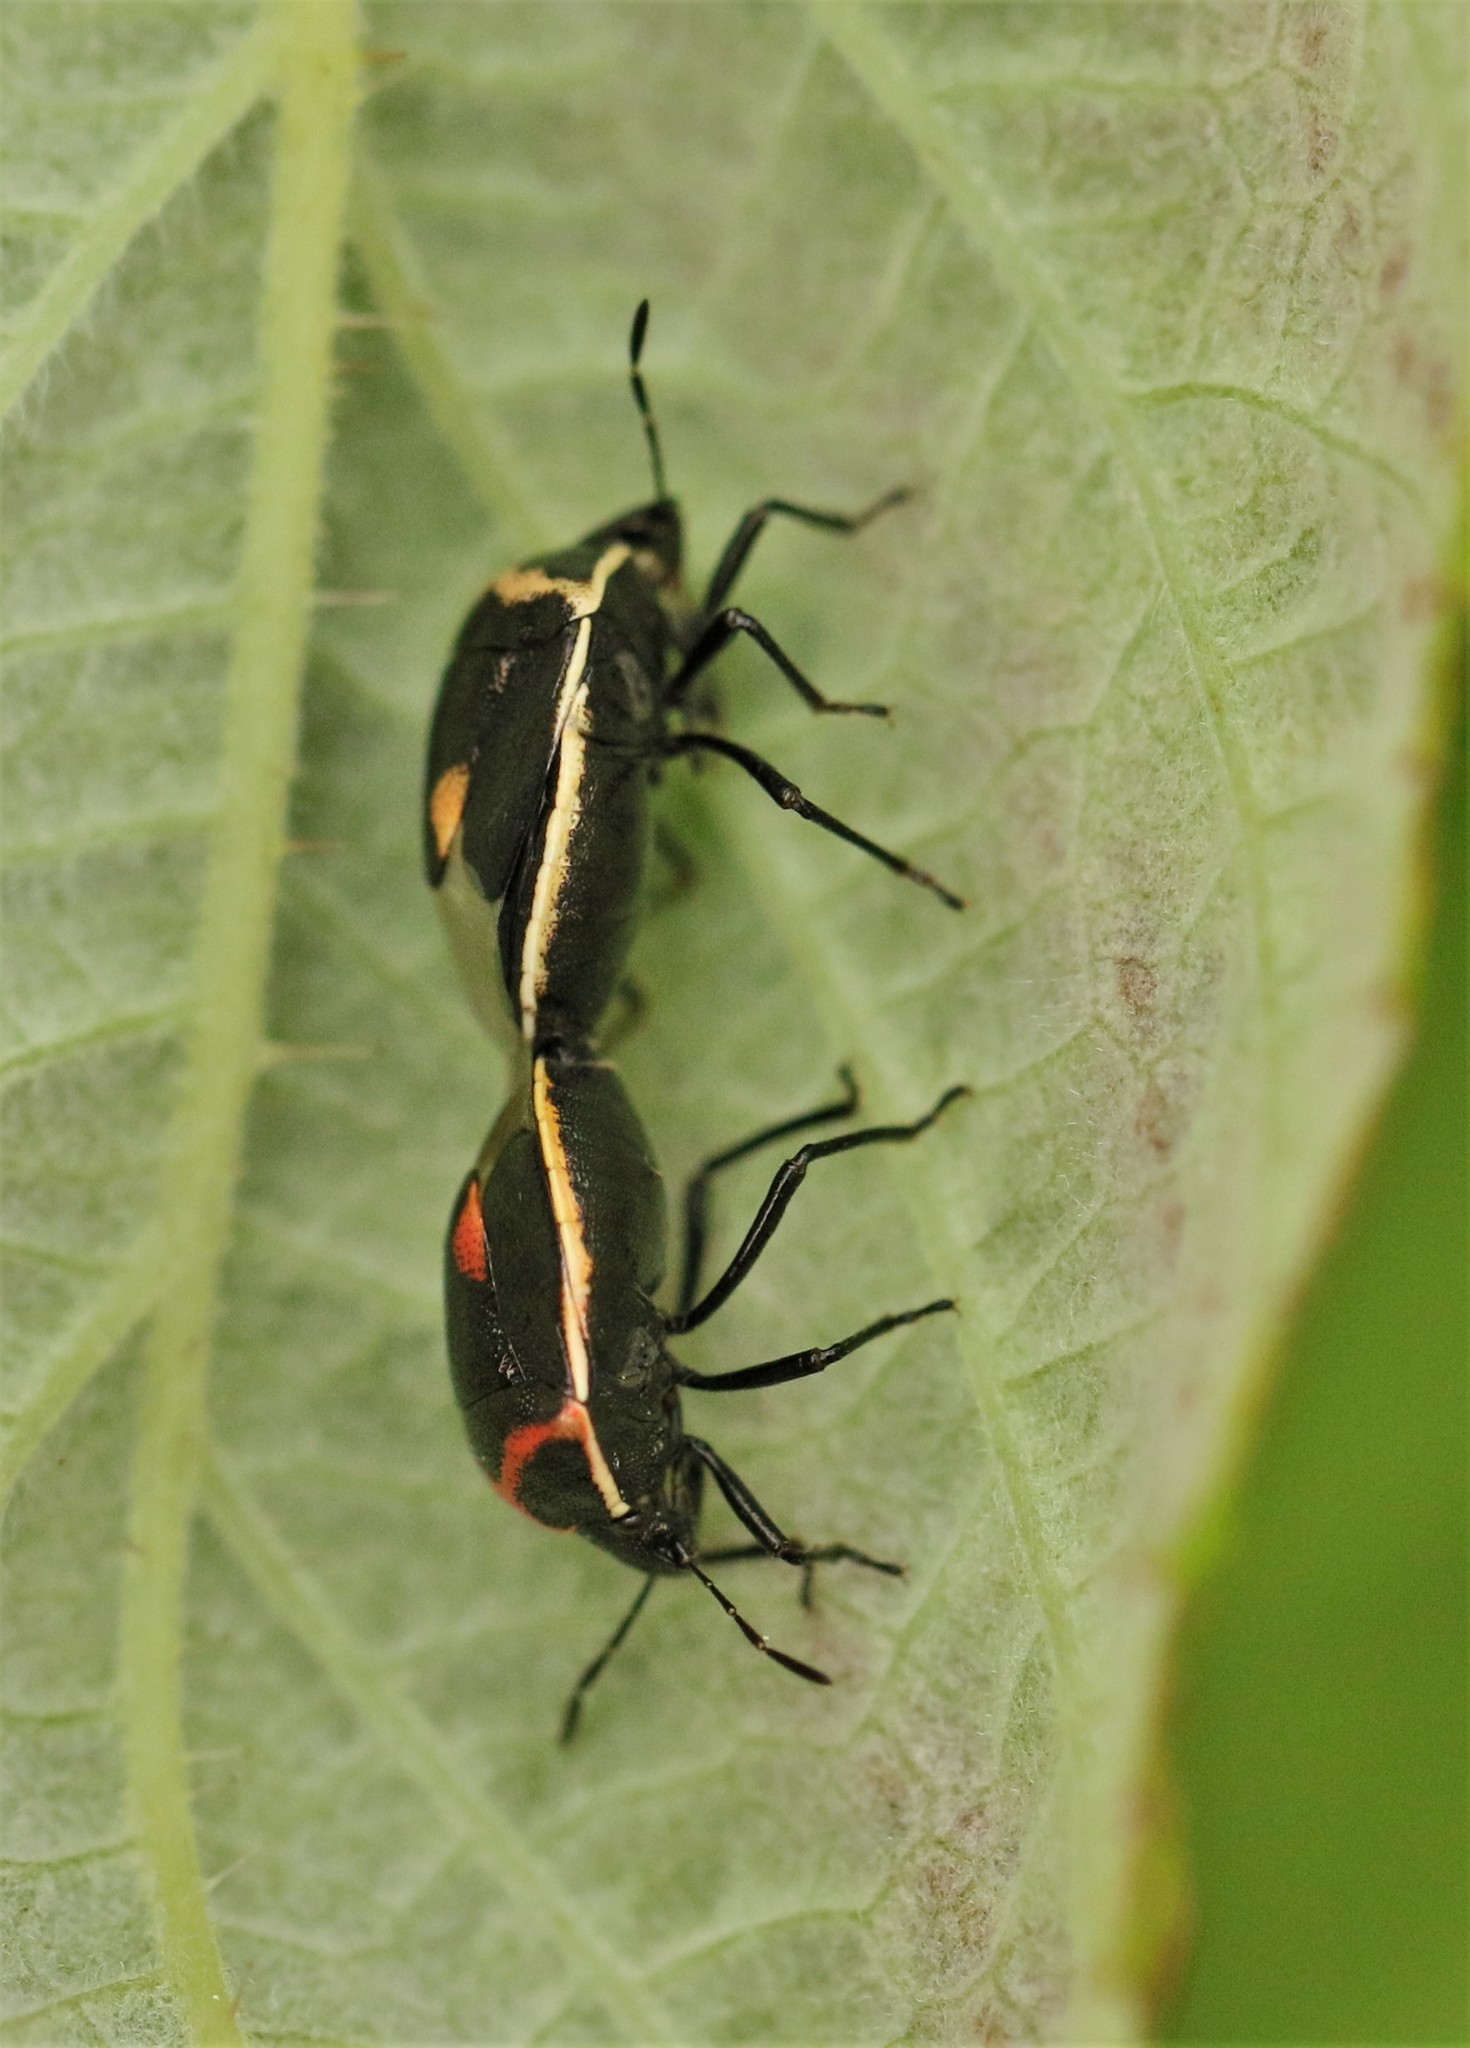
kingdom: Animalia
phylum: Arthropoda
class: Insecta
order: Hemiptera
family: Pentatomidae
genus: Cosmopepla
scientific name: Cosmopepla lintneriana
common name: Twice-stabbed stink bug
